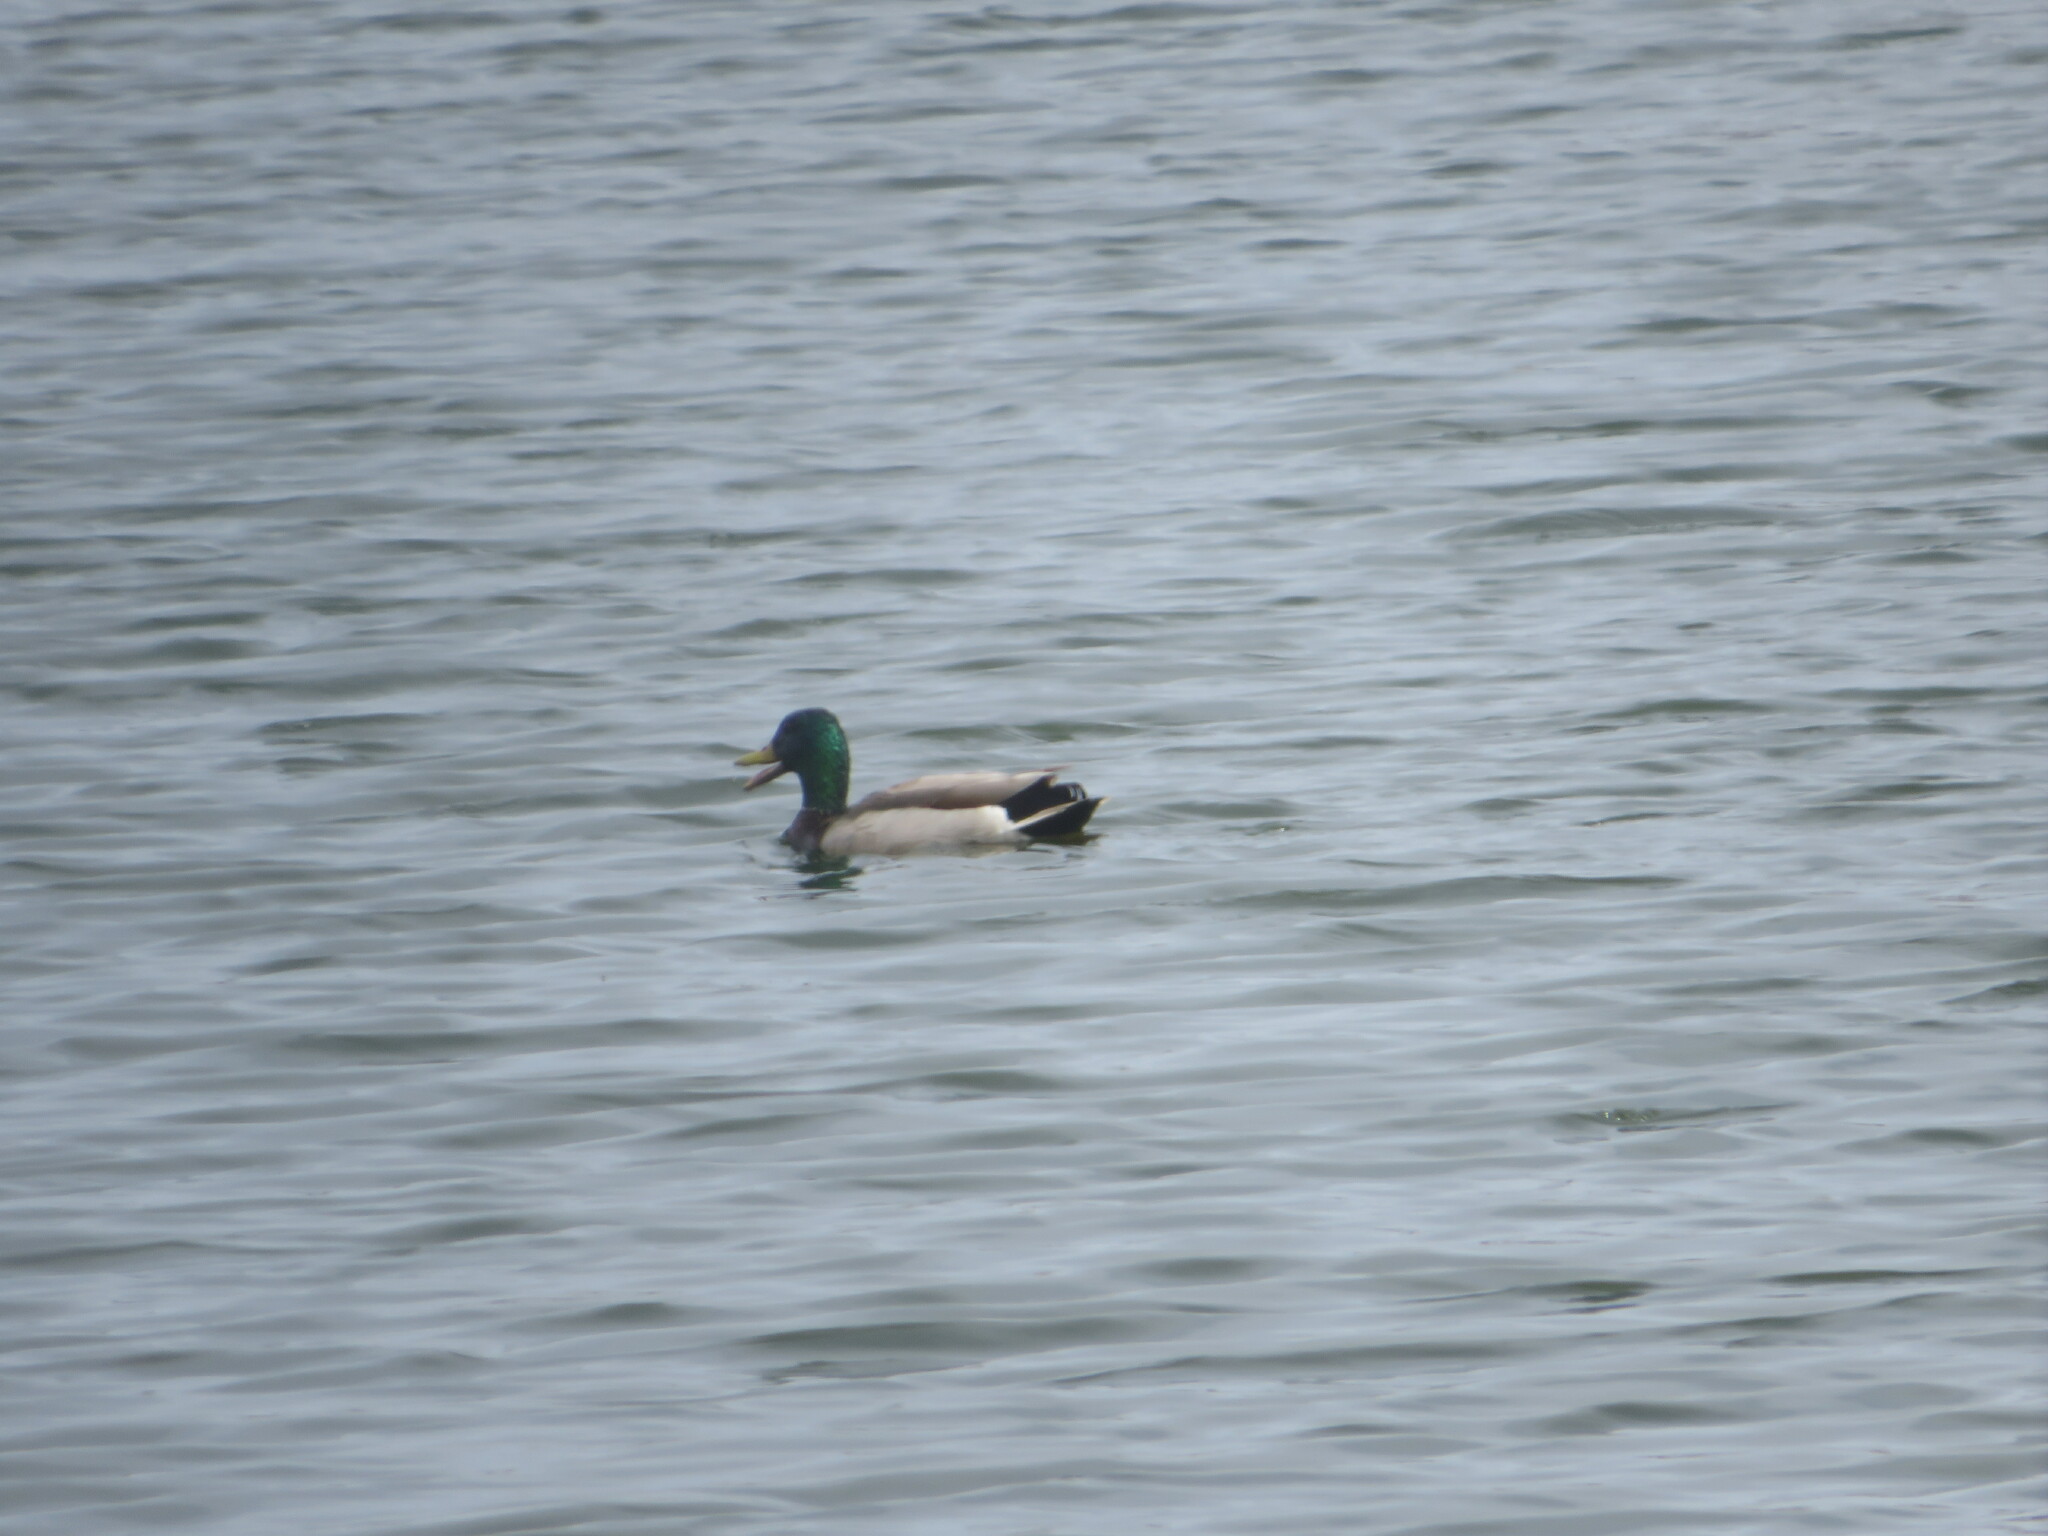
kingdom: Animalia
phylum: Chordata
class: Aves
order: Anseriformes
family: Anatidae
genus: Anas
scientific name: Anas platyrhynchos
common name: Mallard
